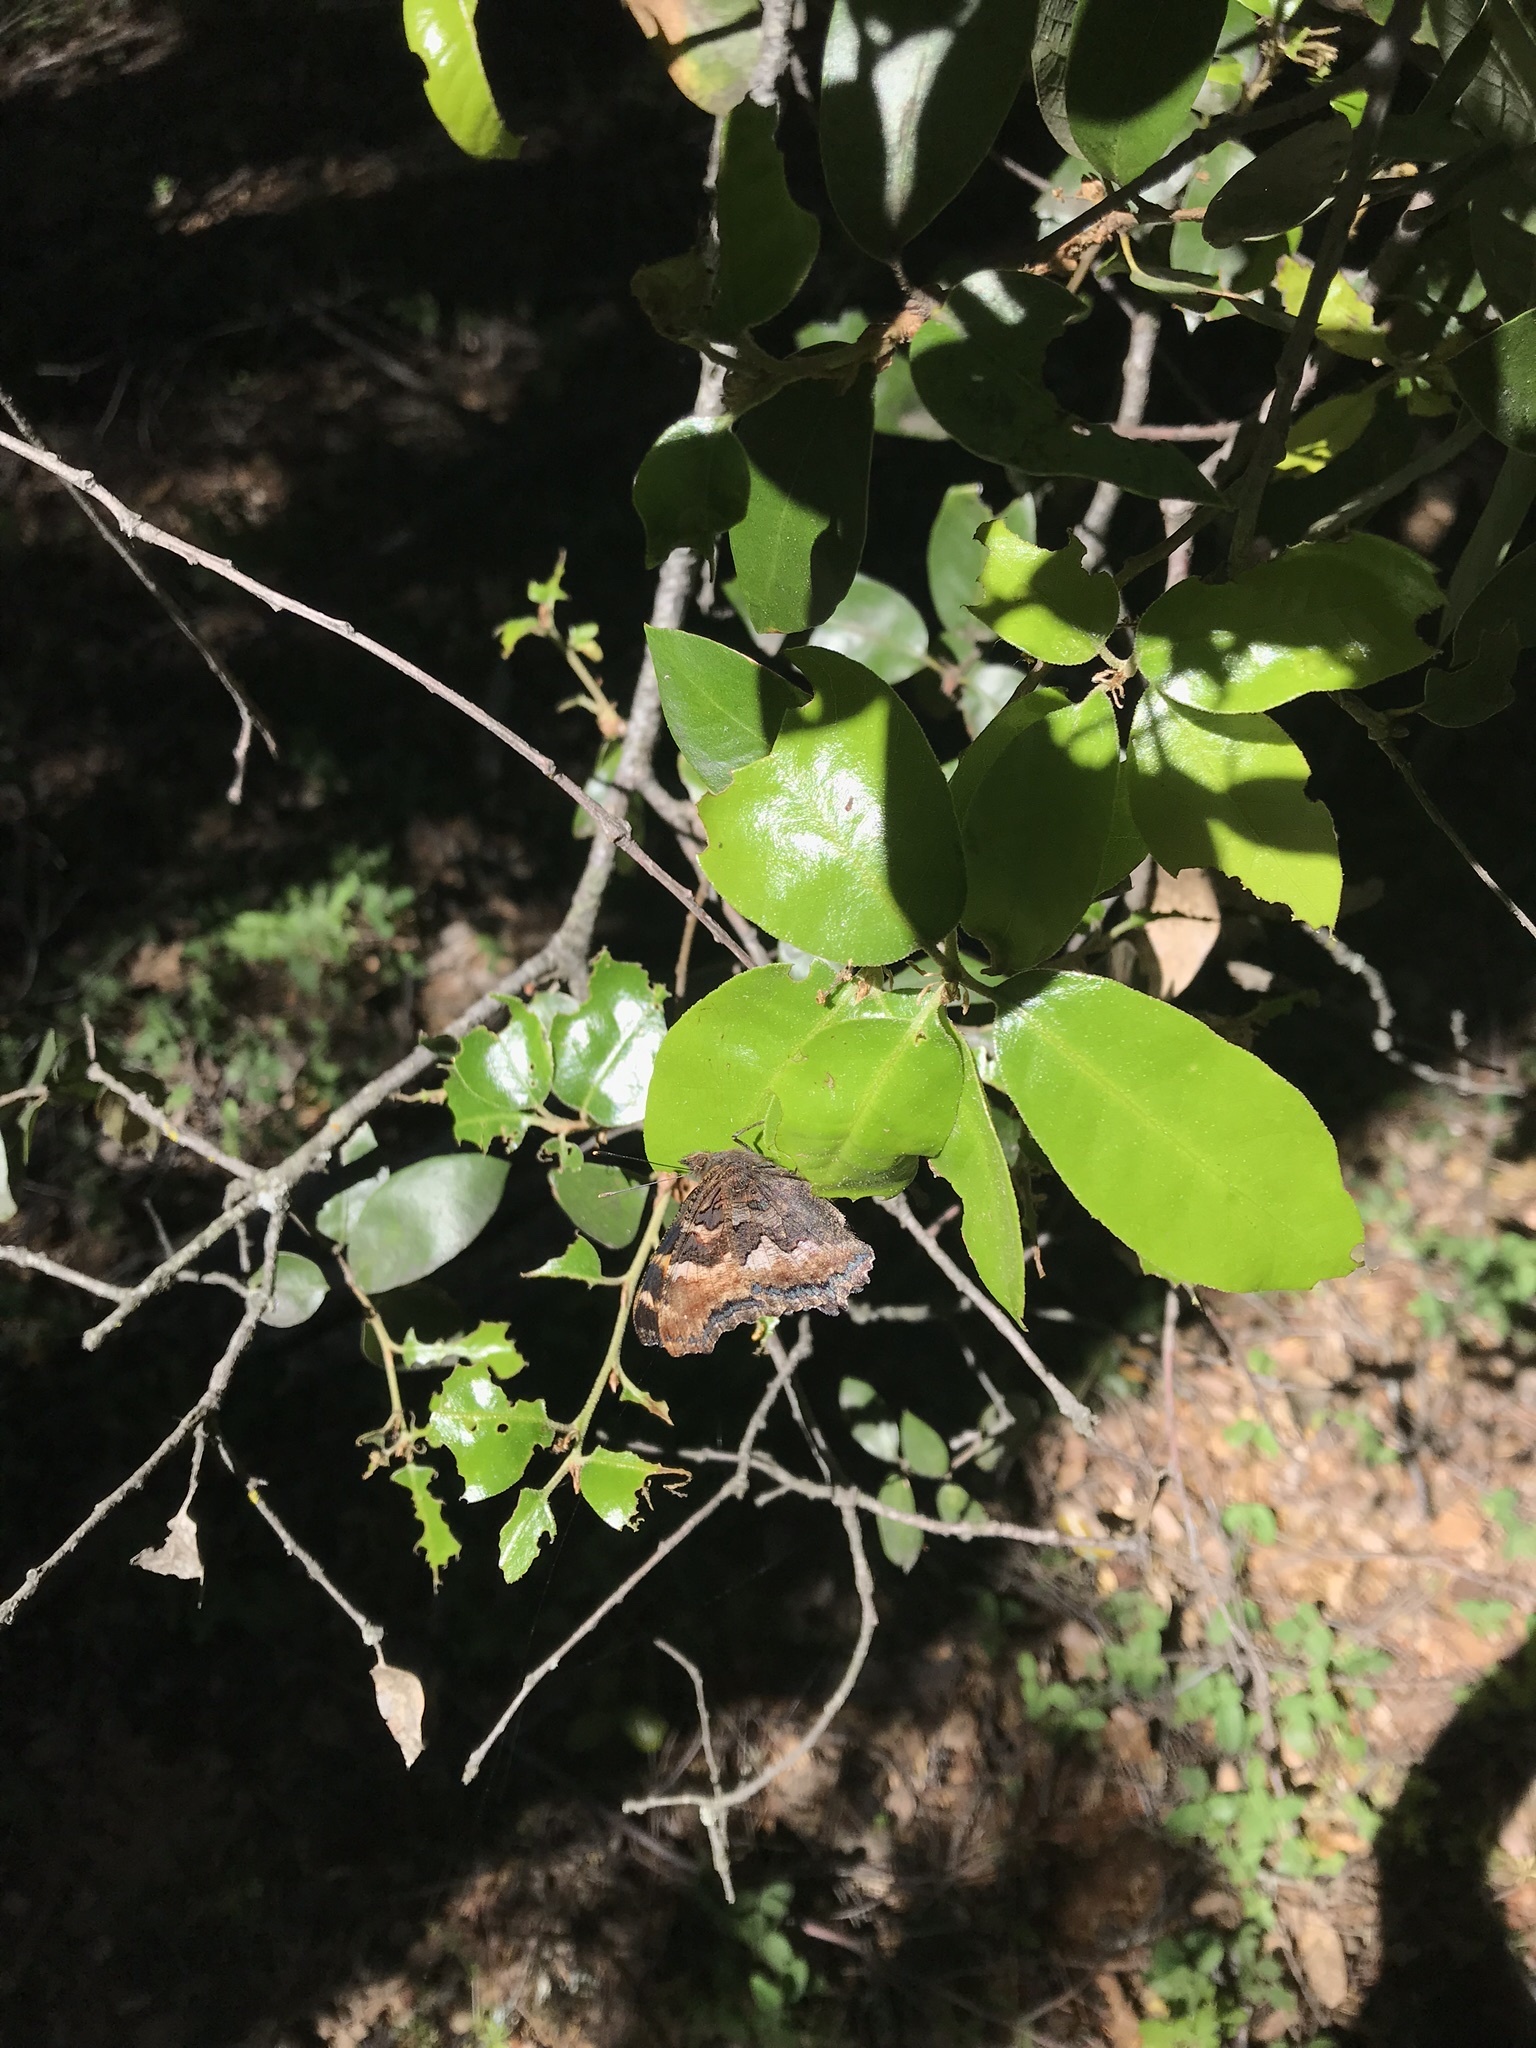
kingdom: Animalia
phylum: Arthropoda
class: Insecta
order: Lepidoptera
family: Nymphalidae
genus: Nymphalis
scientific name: Nymphalis californica
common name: California tortoiseshell
